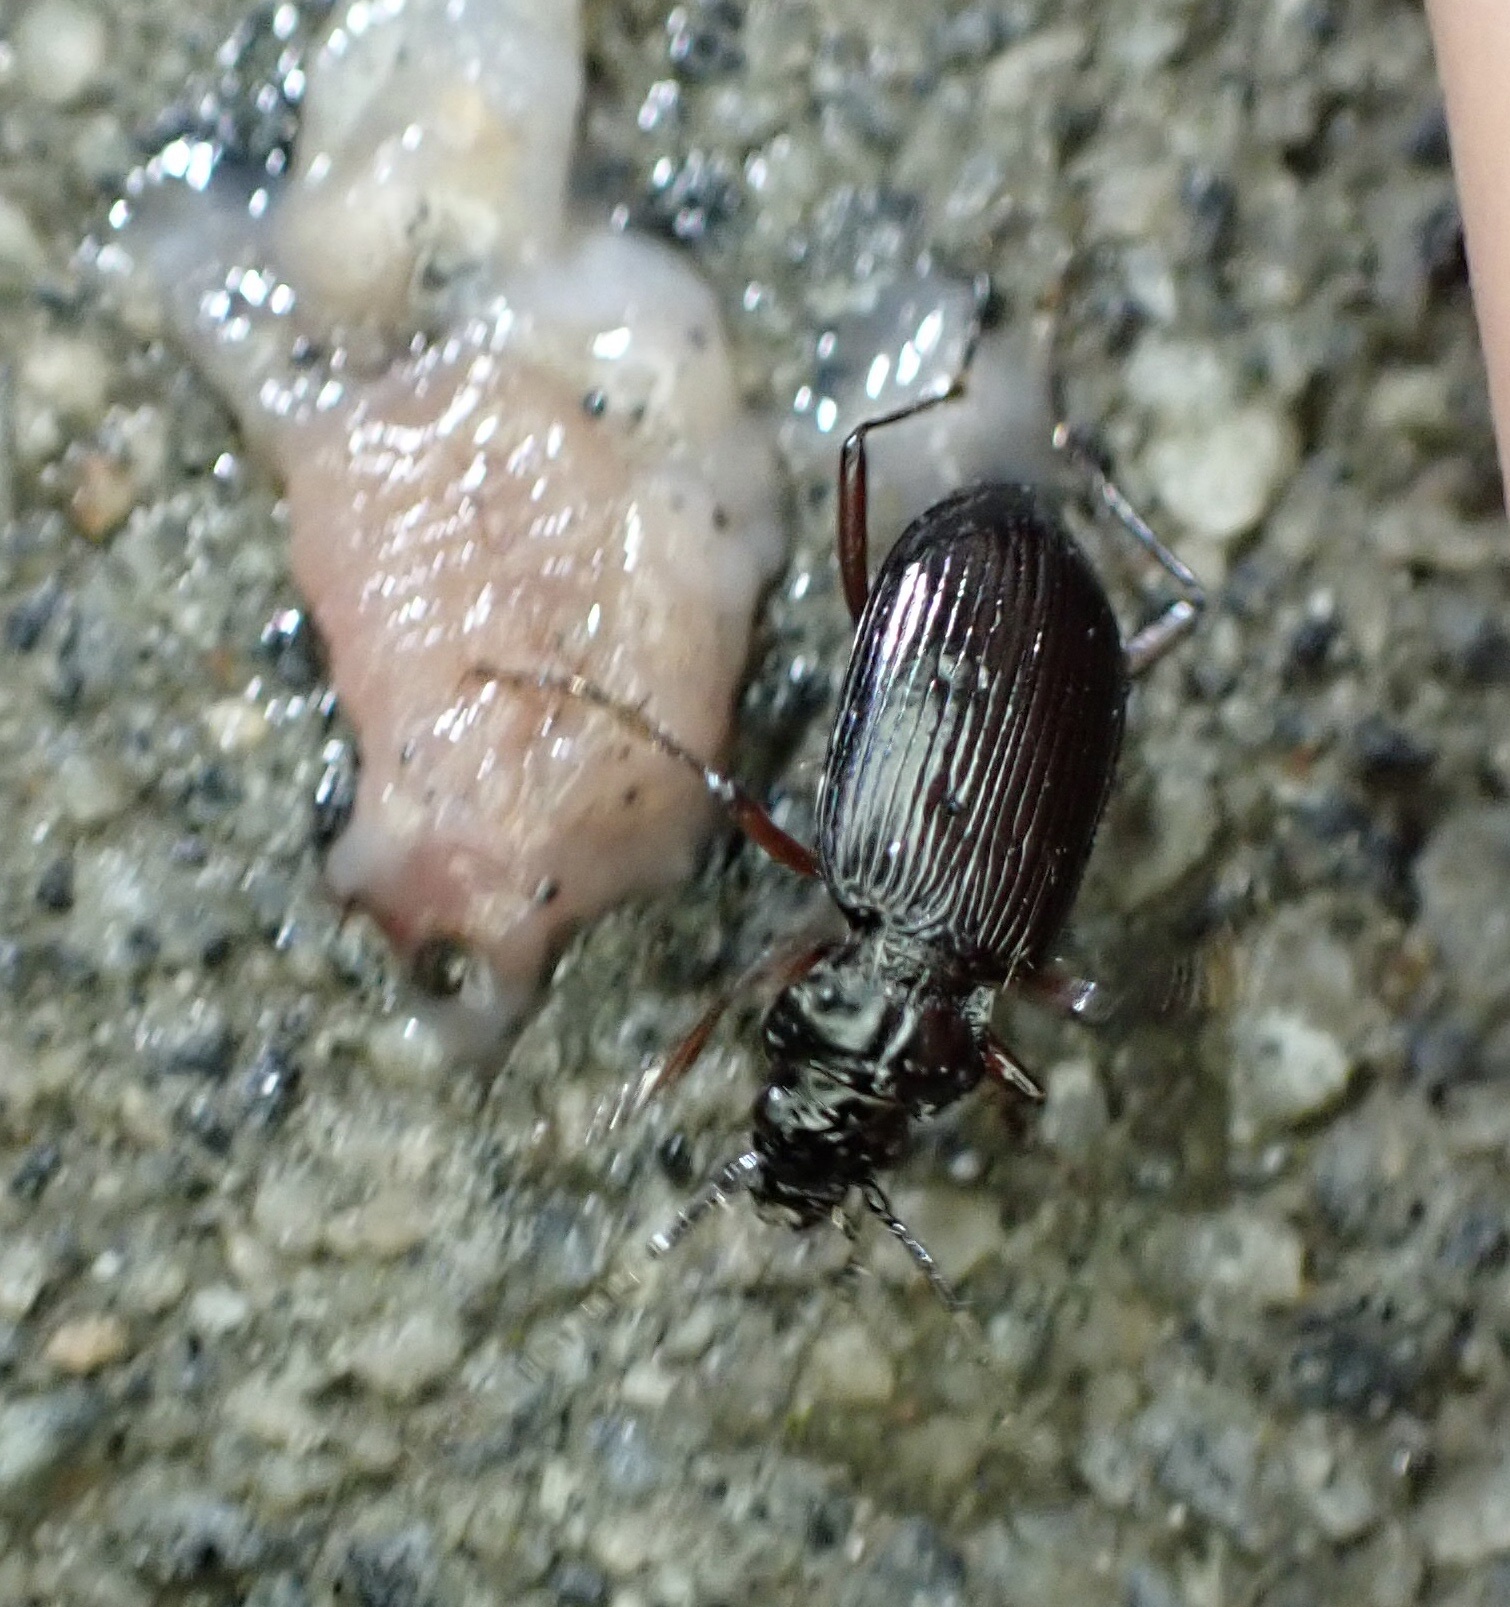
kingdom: Animalia
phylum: Arthropoda
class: Insecta
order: Coleoptera
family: Carabidae
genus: Nebria
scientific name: Nebria rufescens
